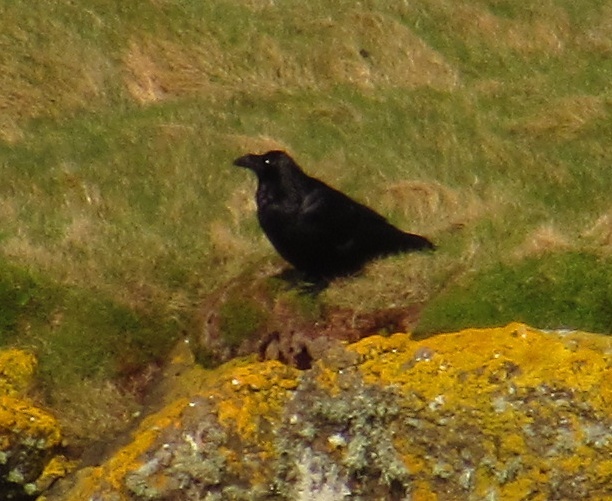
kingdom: Animalia
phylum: Chordata
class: Aves
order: Passeriformes
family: Corvidae
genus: Corvus
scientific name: Corvus corax
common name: Common raven
